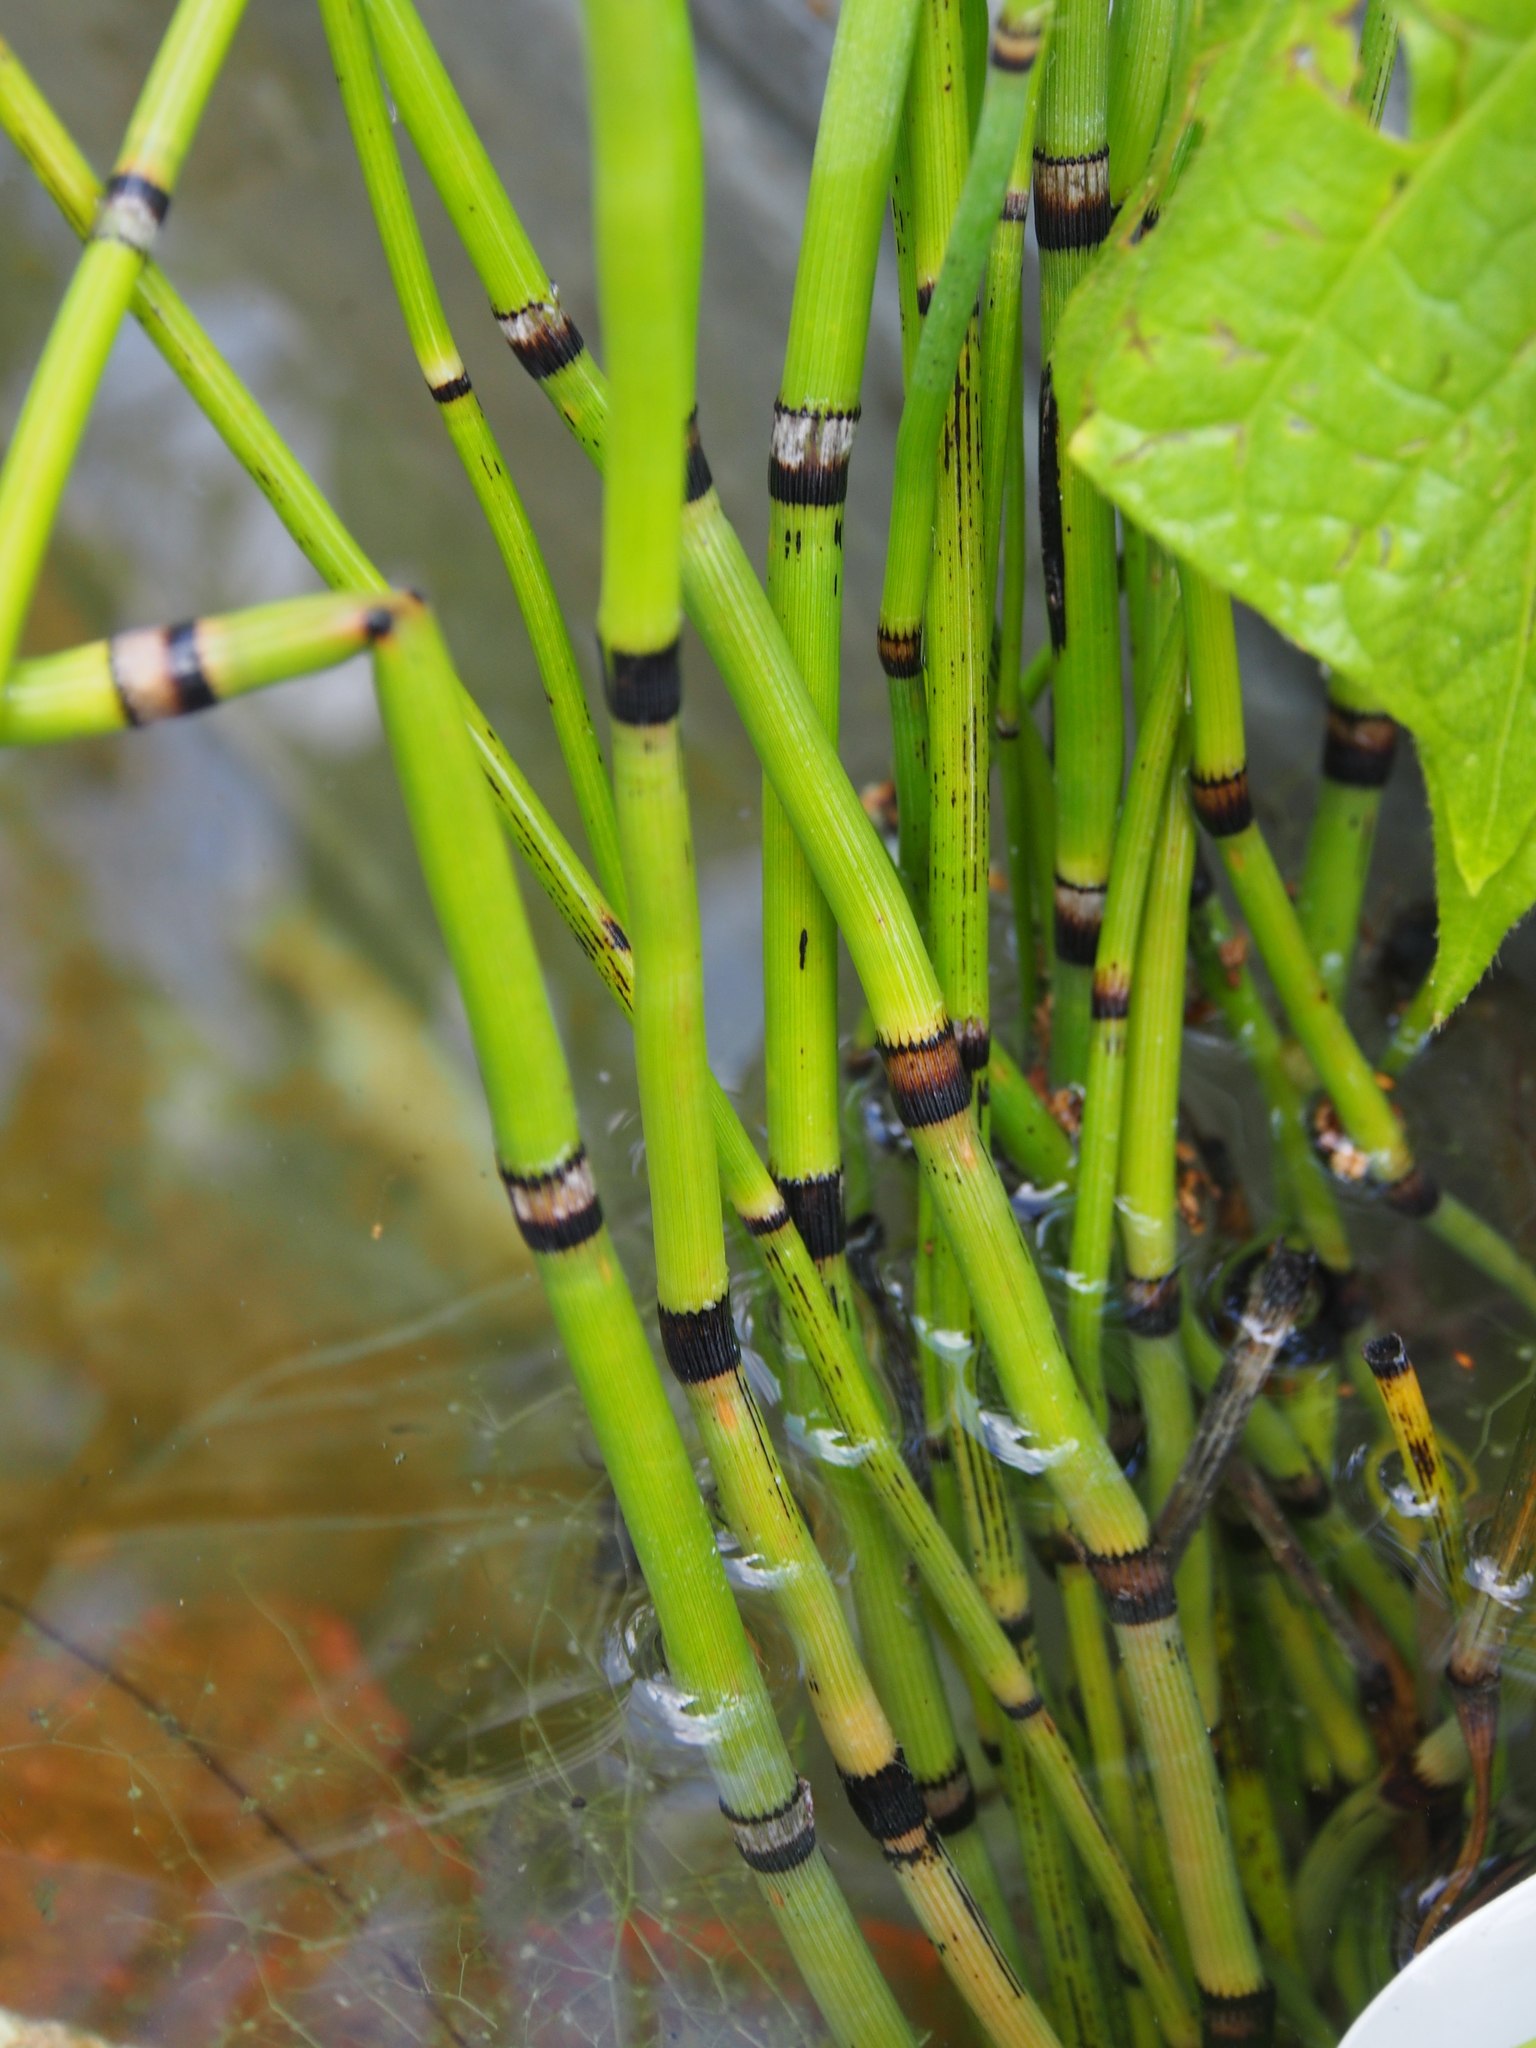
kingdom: Plantae
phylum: Tracheophyta
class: Polypodiopsida
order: Equisetales
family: Equisetaceae
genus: Equisetum
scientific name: Equisetum hyemale
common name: Rough horsetail
